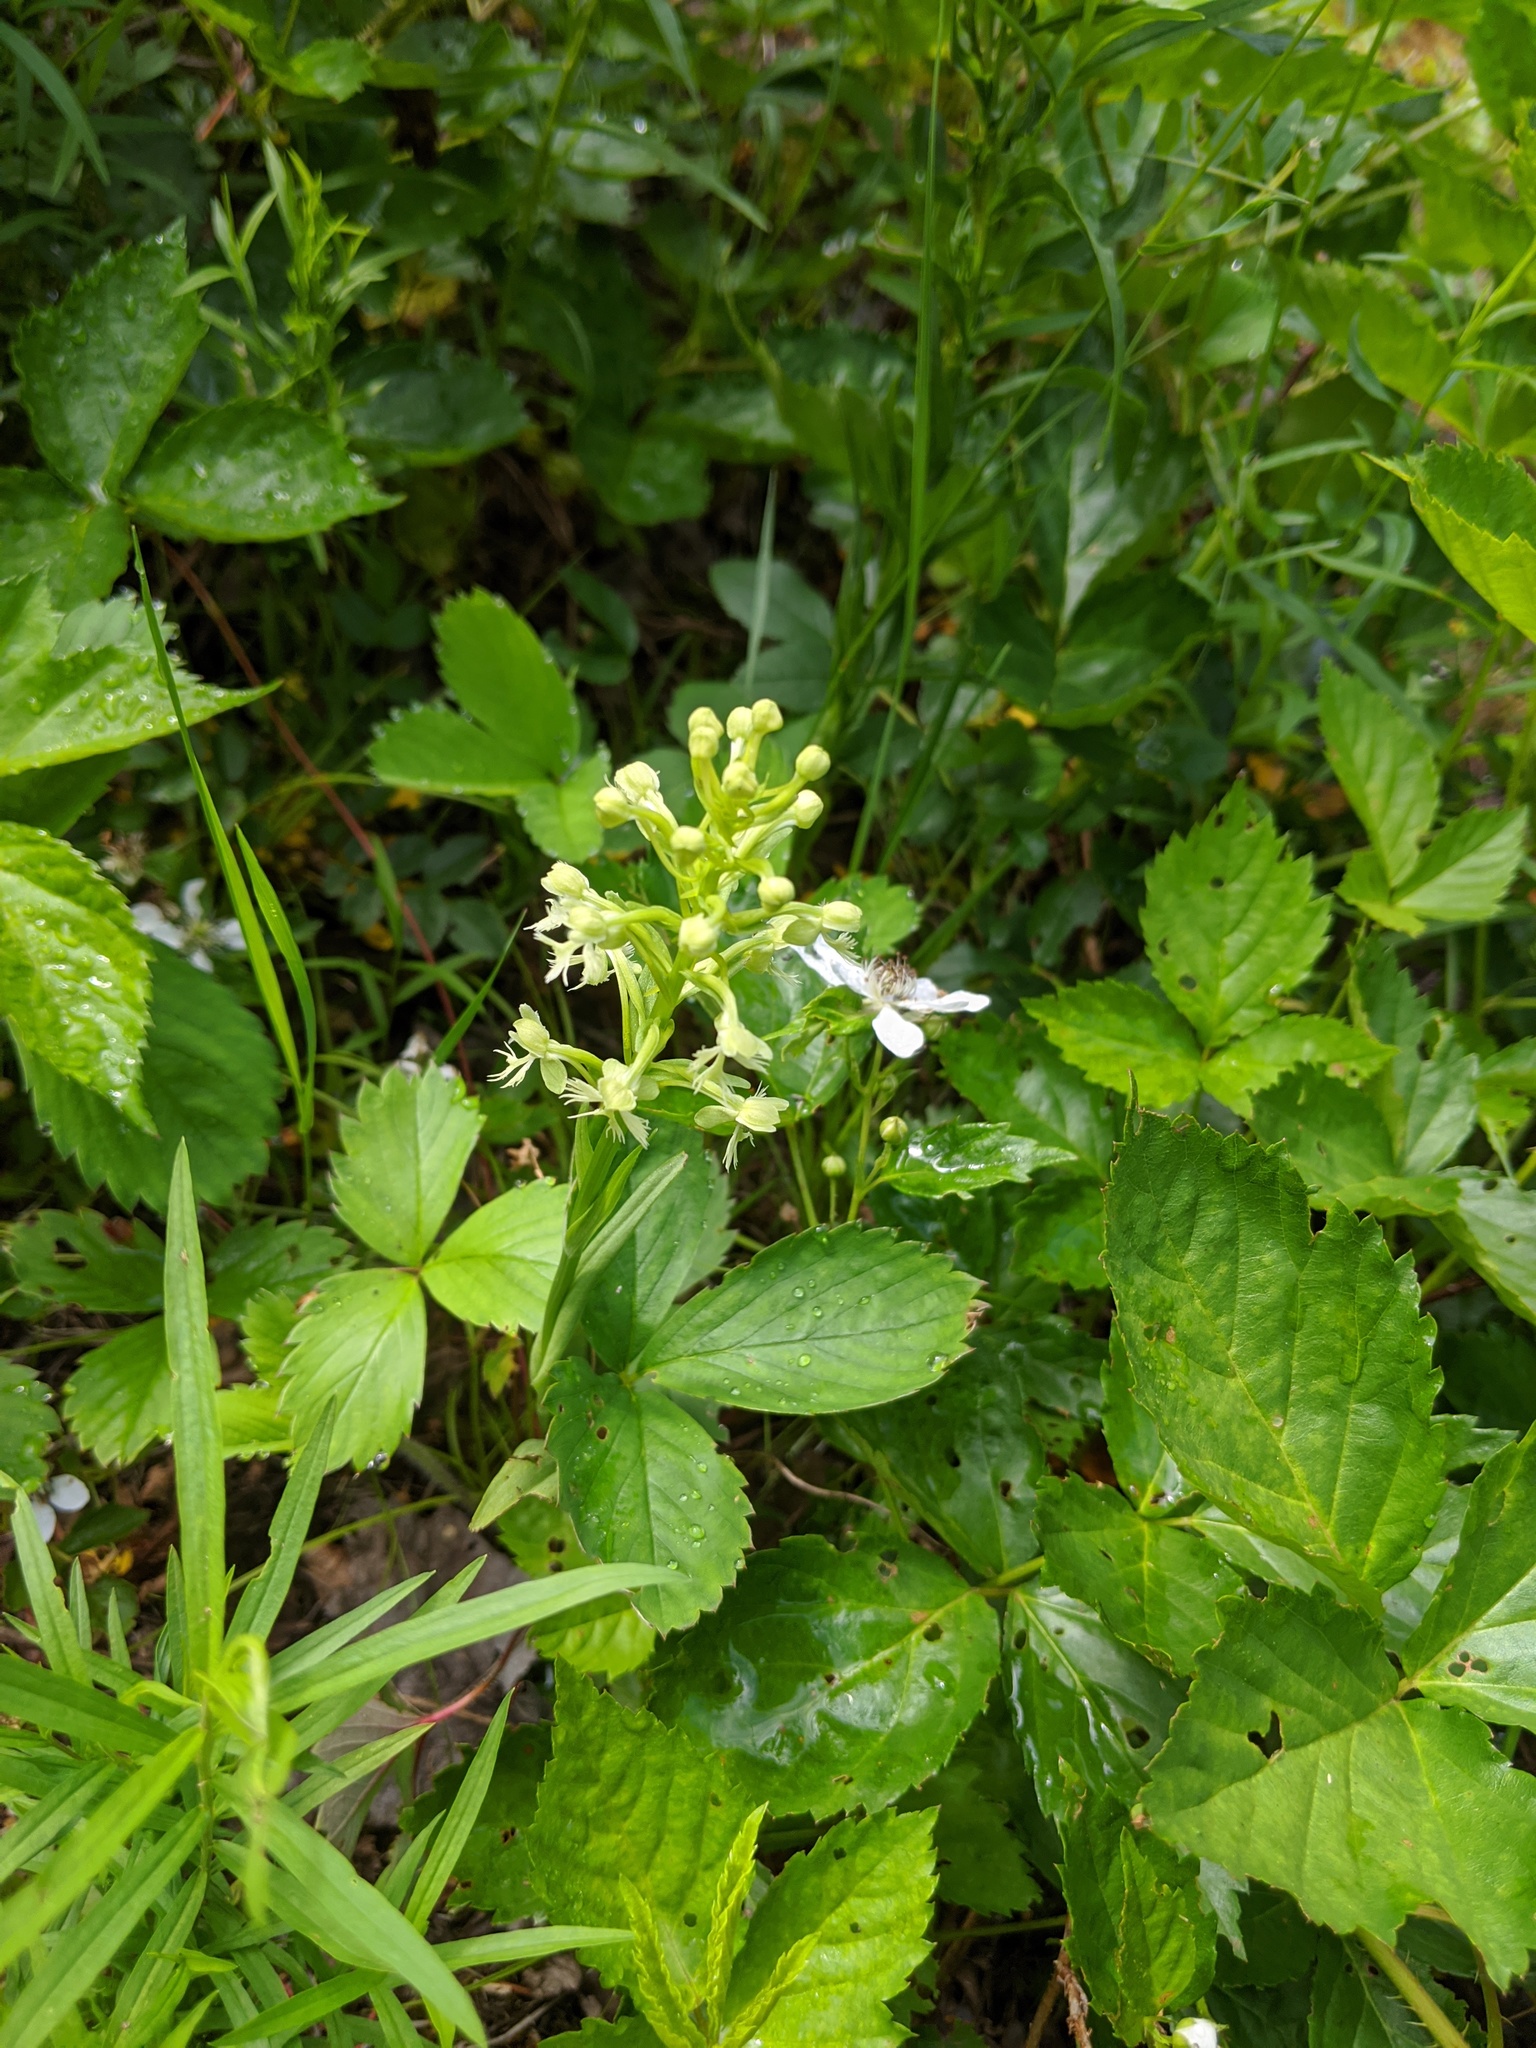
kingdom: Plantae
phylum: Tracheophyta
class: Liliopsida
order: Asparagales
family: Orchidaceae
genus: Platanthera
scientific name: Platanthera lacera
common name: Green fringed orchid
